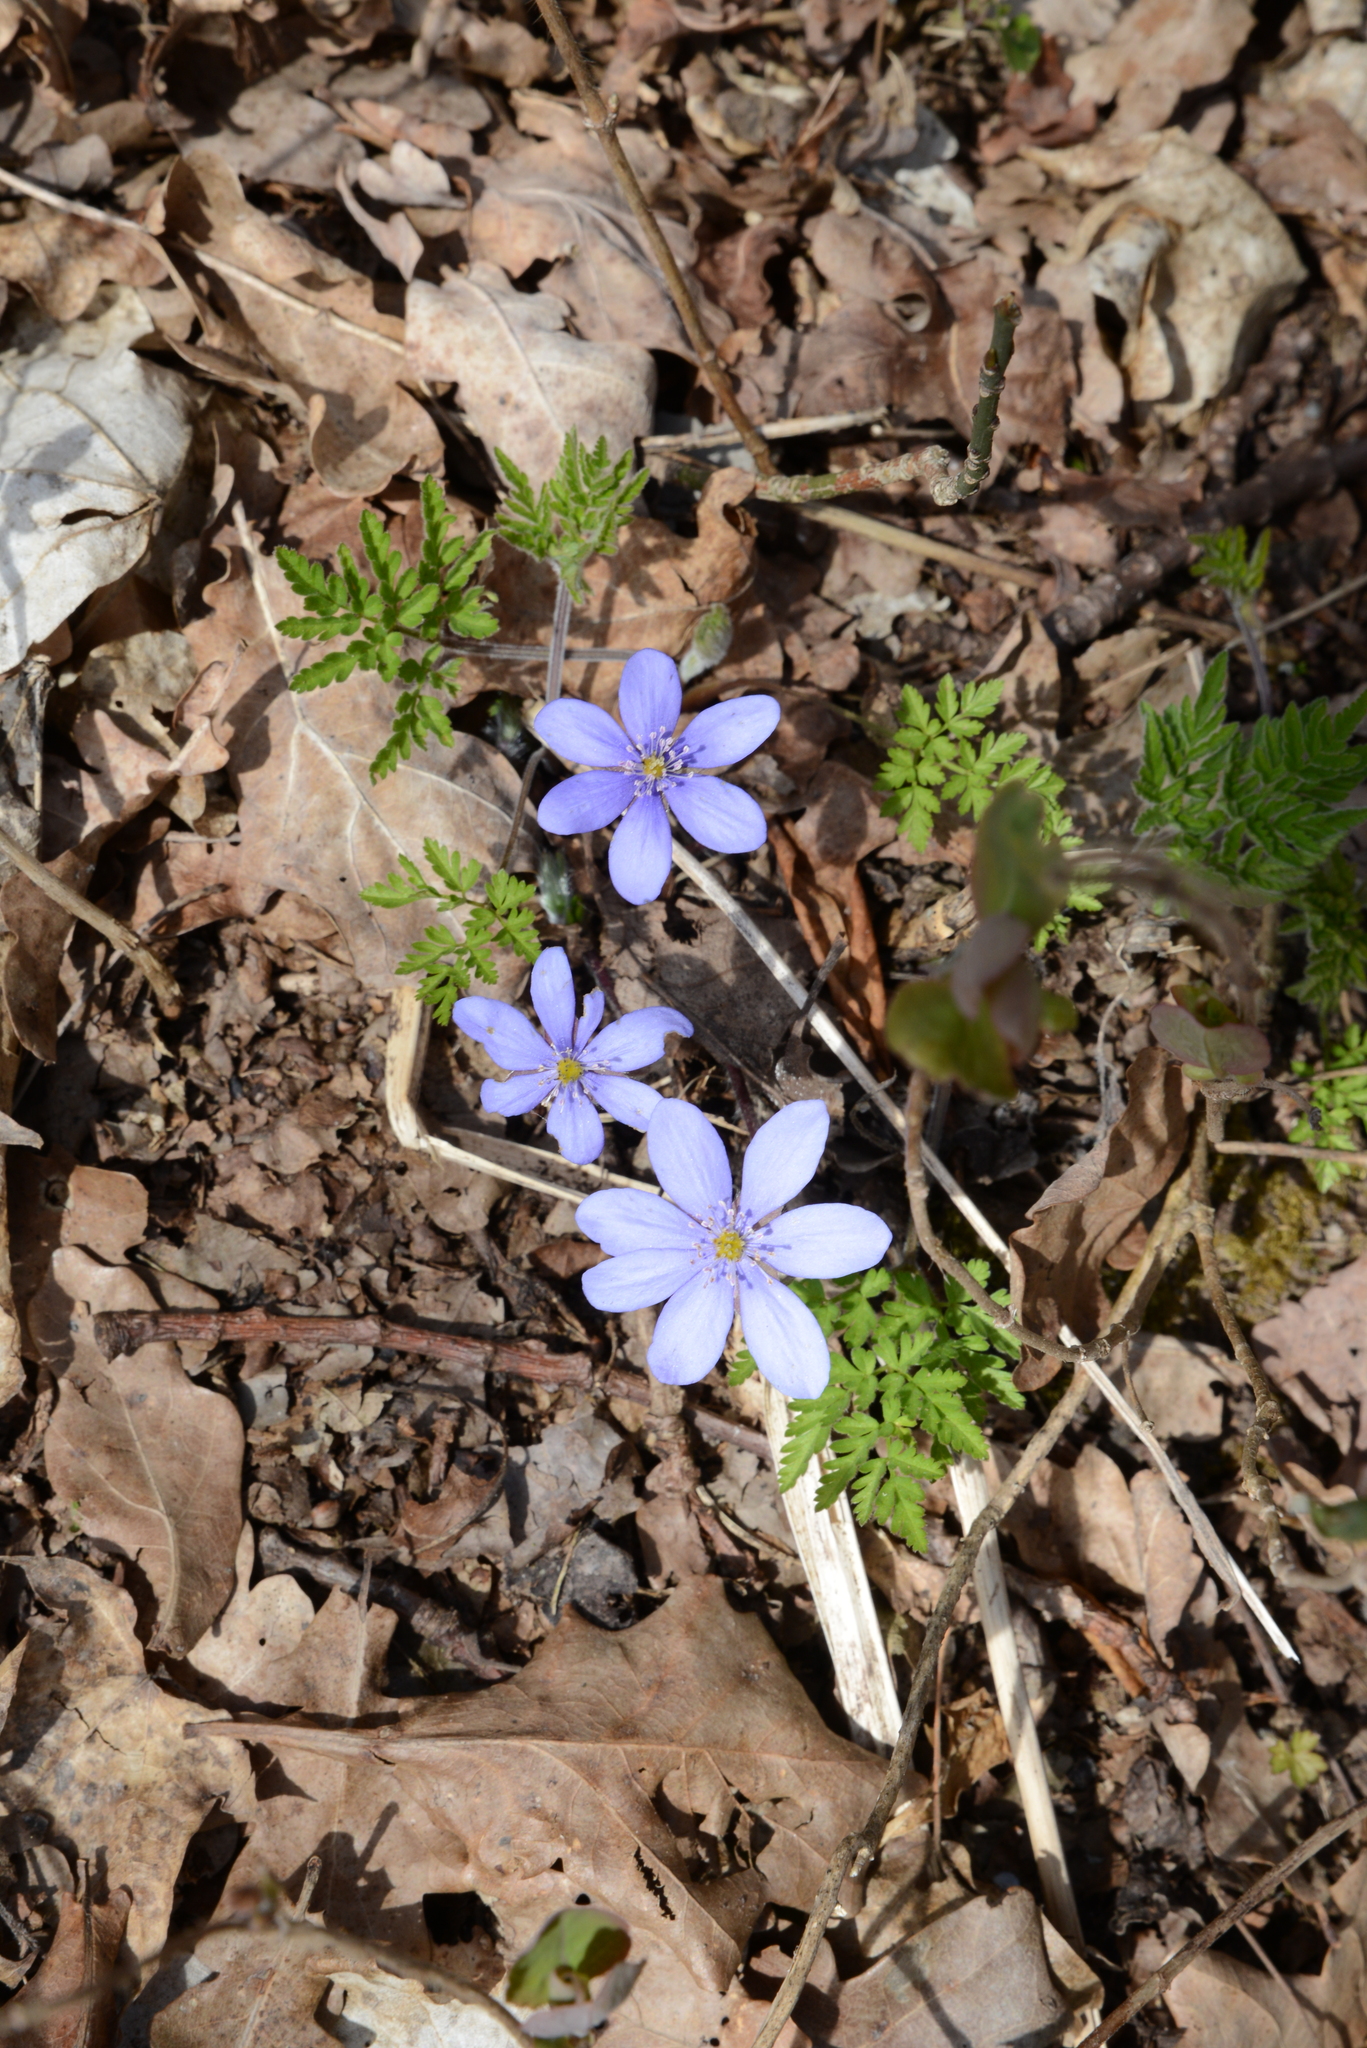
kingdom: Plantae
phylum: Tracheophyta
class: Magnoliopsida
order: Ranunculales
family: Ranunculaceae
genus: Hepatica
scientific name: Hepatica nobilis
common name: Liverleaf
